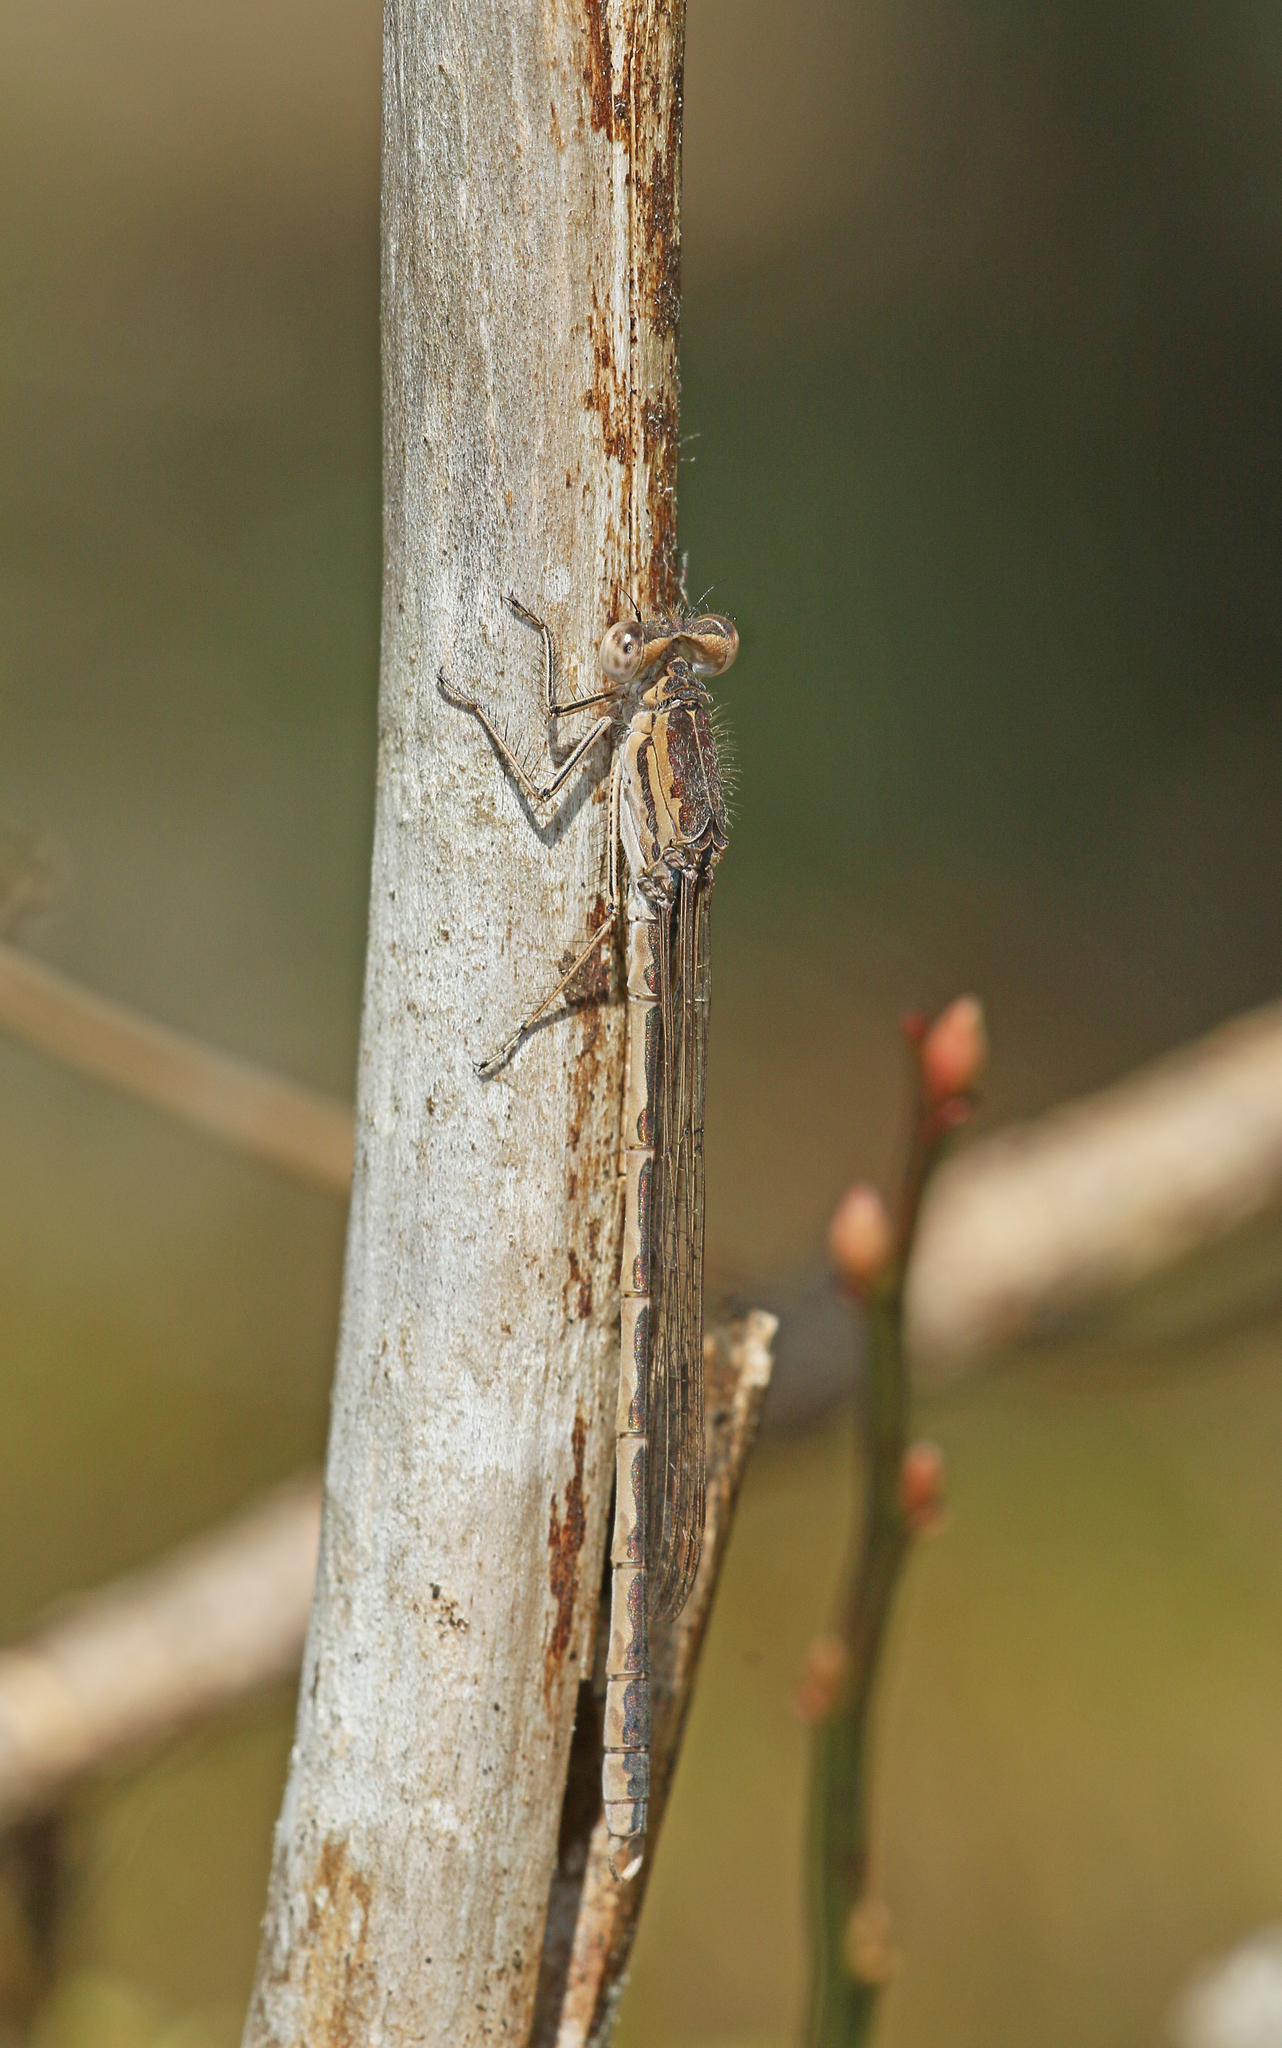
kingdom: Animalia
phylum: Arthropoda
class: Insecta
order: Odonata
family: Lestidae
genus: Sympecma
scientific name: Sympecma paedisca
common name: Siberian winter damsel
